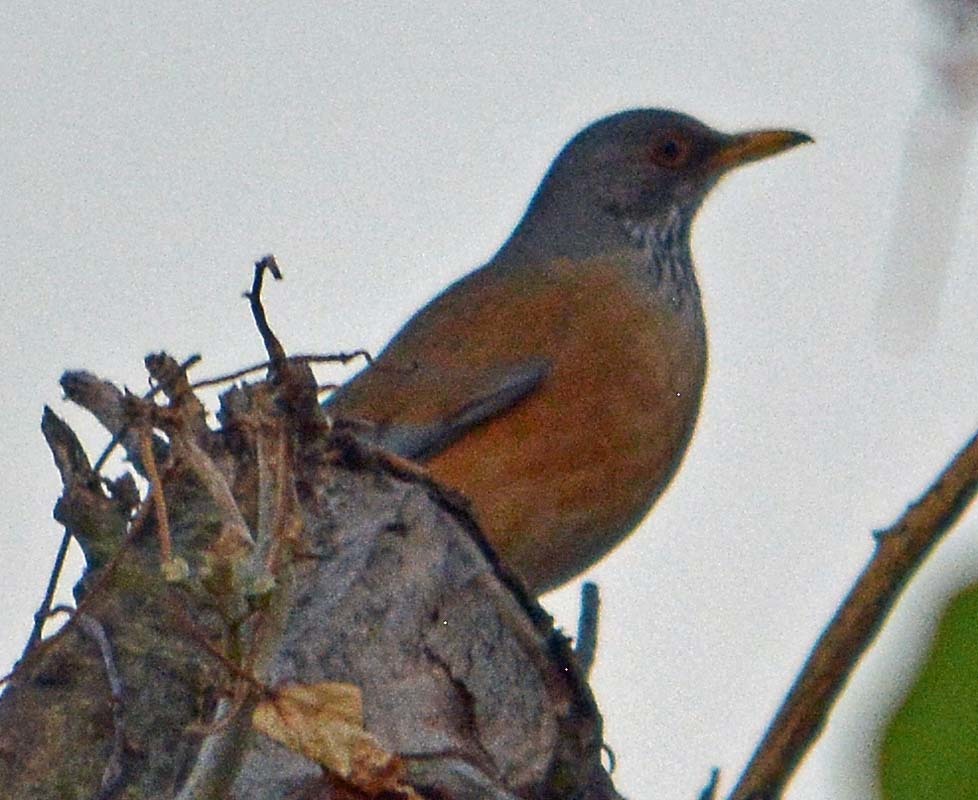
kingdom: Animalia
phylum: Chordata
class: Aves
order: Passeriformes
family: Turdidae
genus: Turdus
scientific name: Turdus rufopalliatus
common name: Rufous-backed robin
